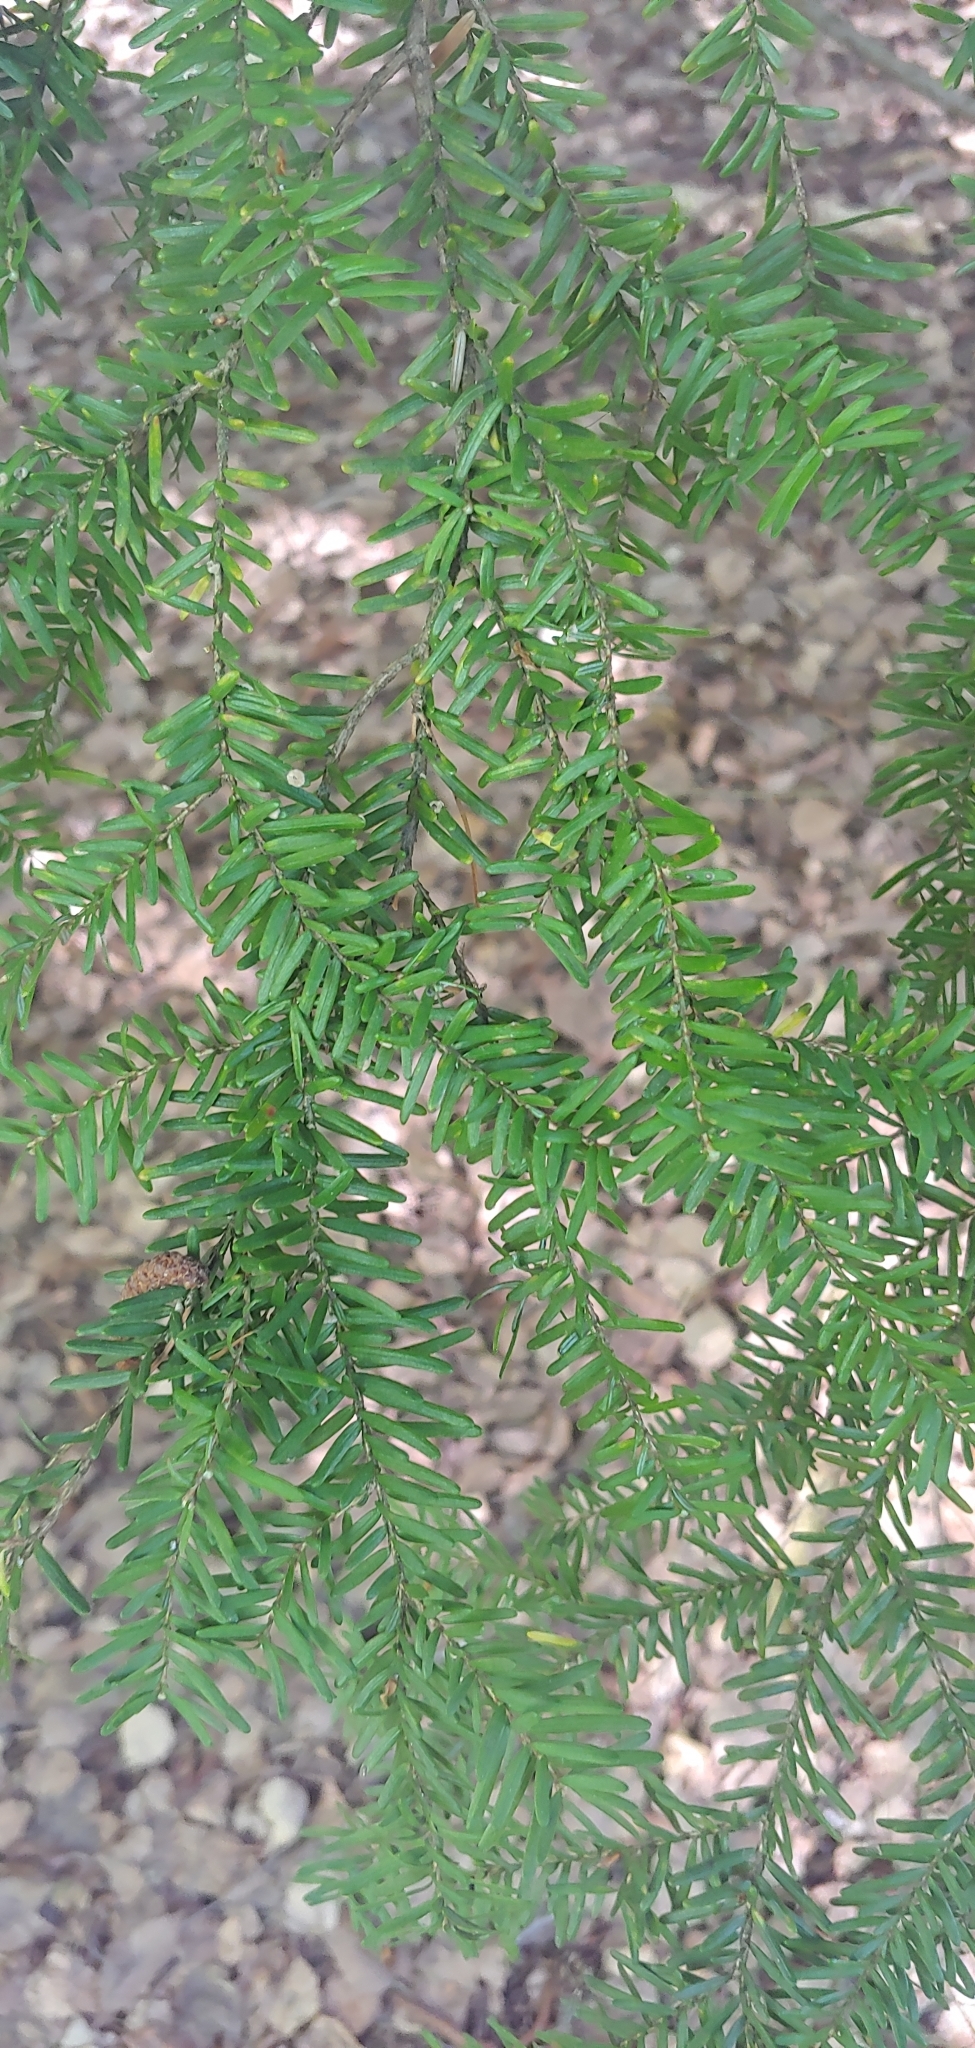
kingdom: Plantae
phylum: Tracheophyta
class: Pinopsida
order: Pinales
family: Pinaceae
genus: Tsuga
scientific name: Tsuga heterophylla
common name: Western hemlock
